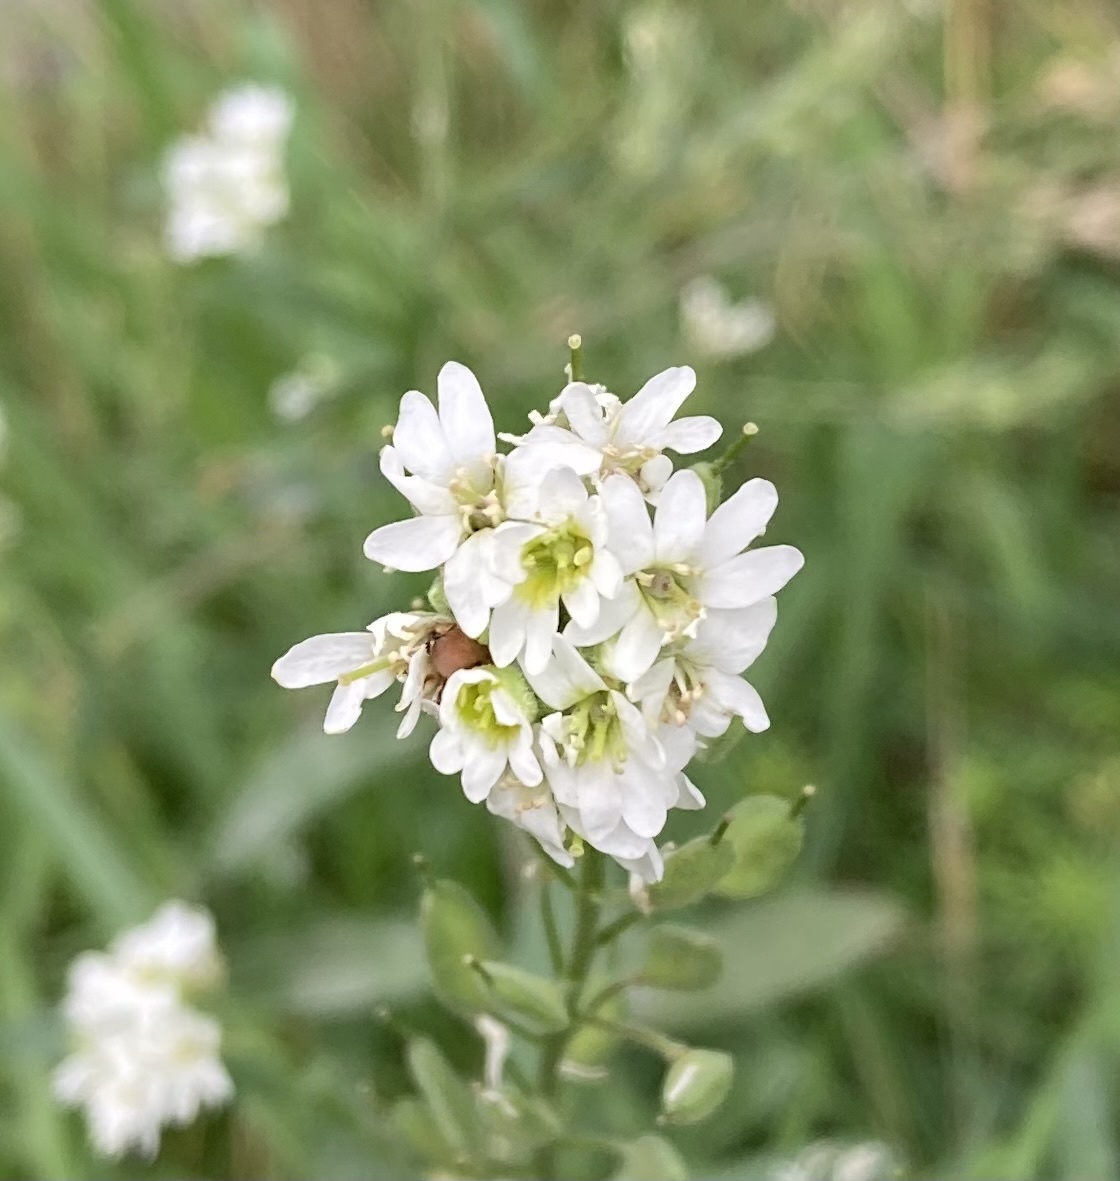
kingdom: Plantae
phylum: Tracheophyta
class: Magnoliopsida
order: Brassicales
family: Brassicaceae
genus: Berteroa
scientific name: Berteroa incana
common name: Hoary alison
